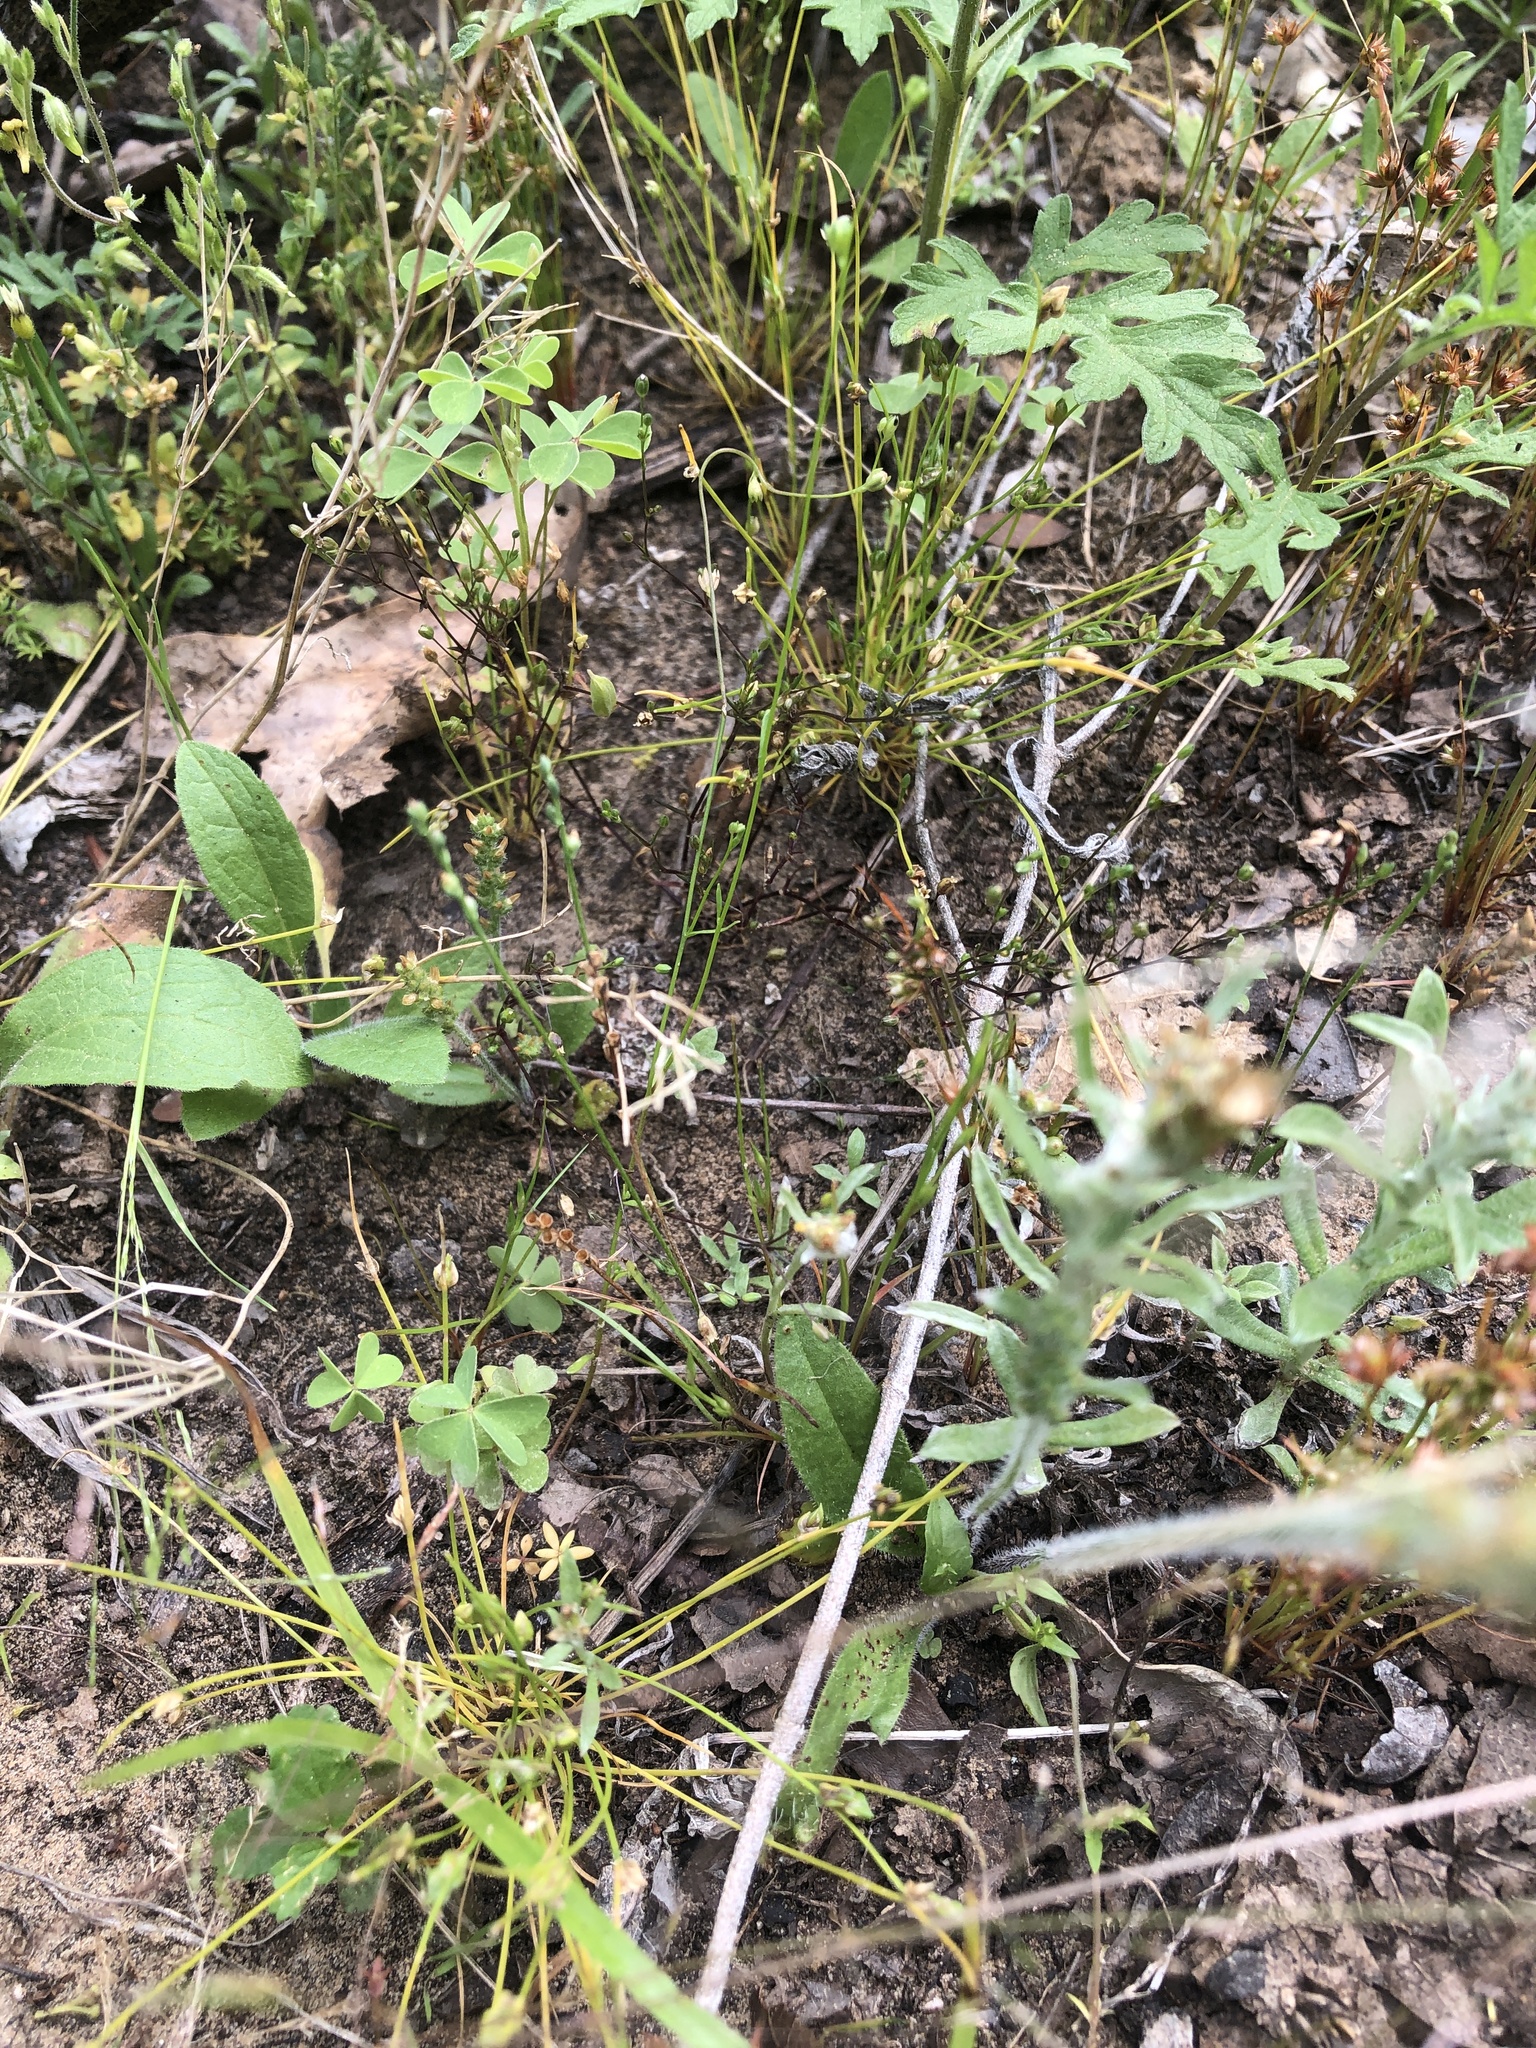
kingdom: Plantae
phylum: Tracheophyta
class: Magnoliopsida
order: Lamiales
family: Plantaginaceae
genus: Plantago
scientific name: Plantago heterophylla
